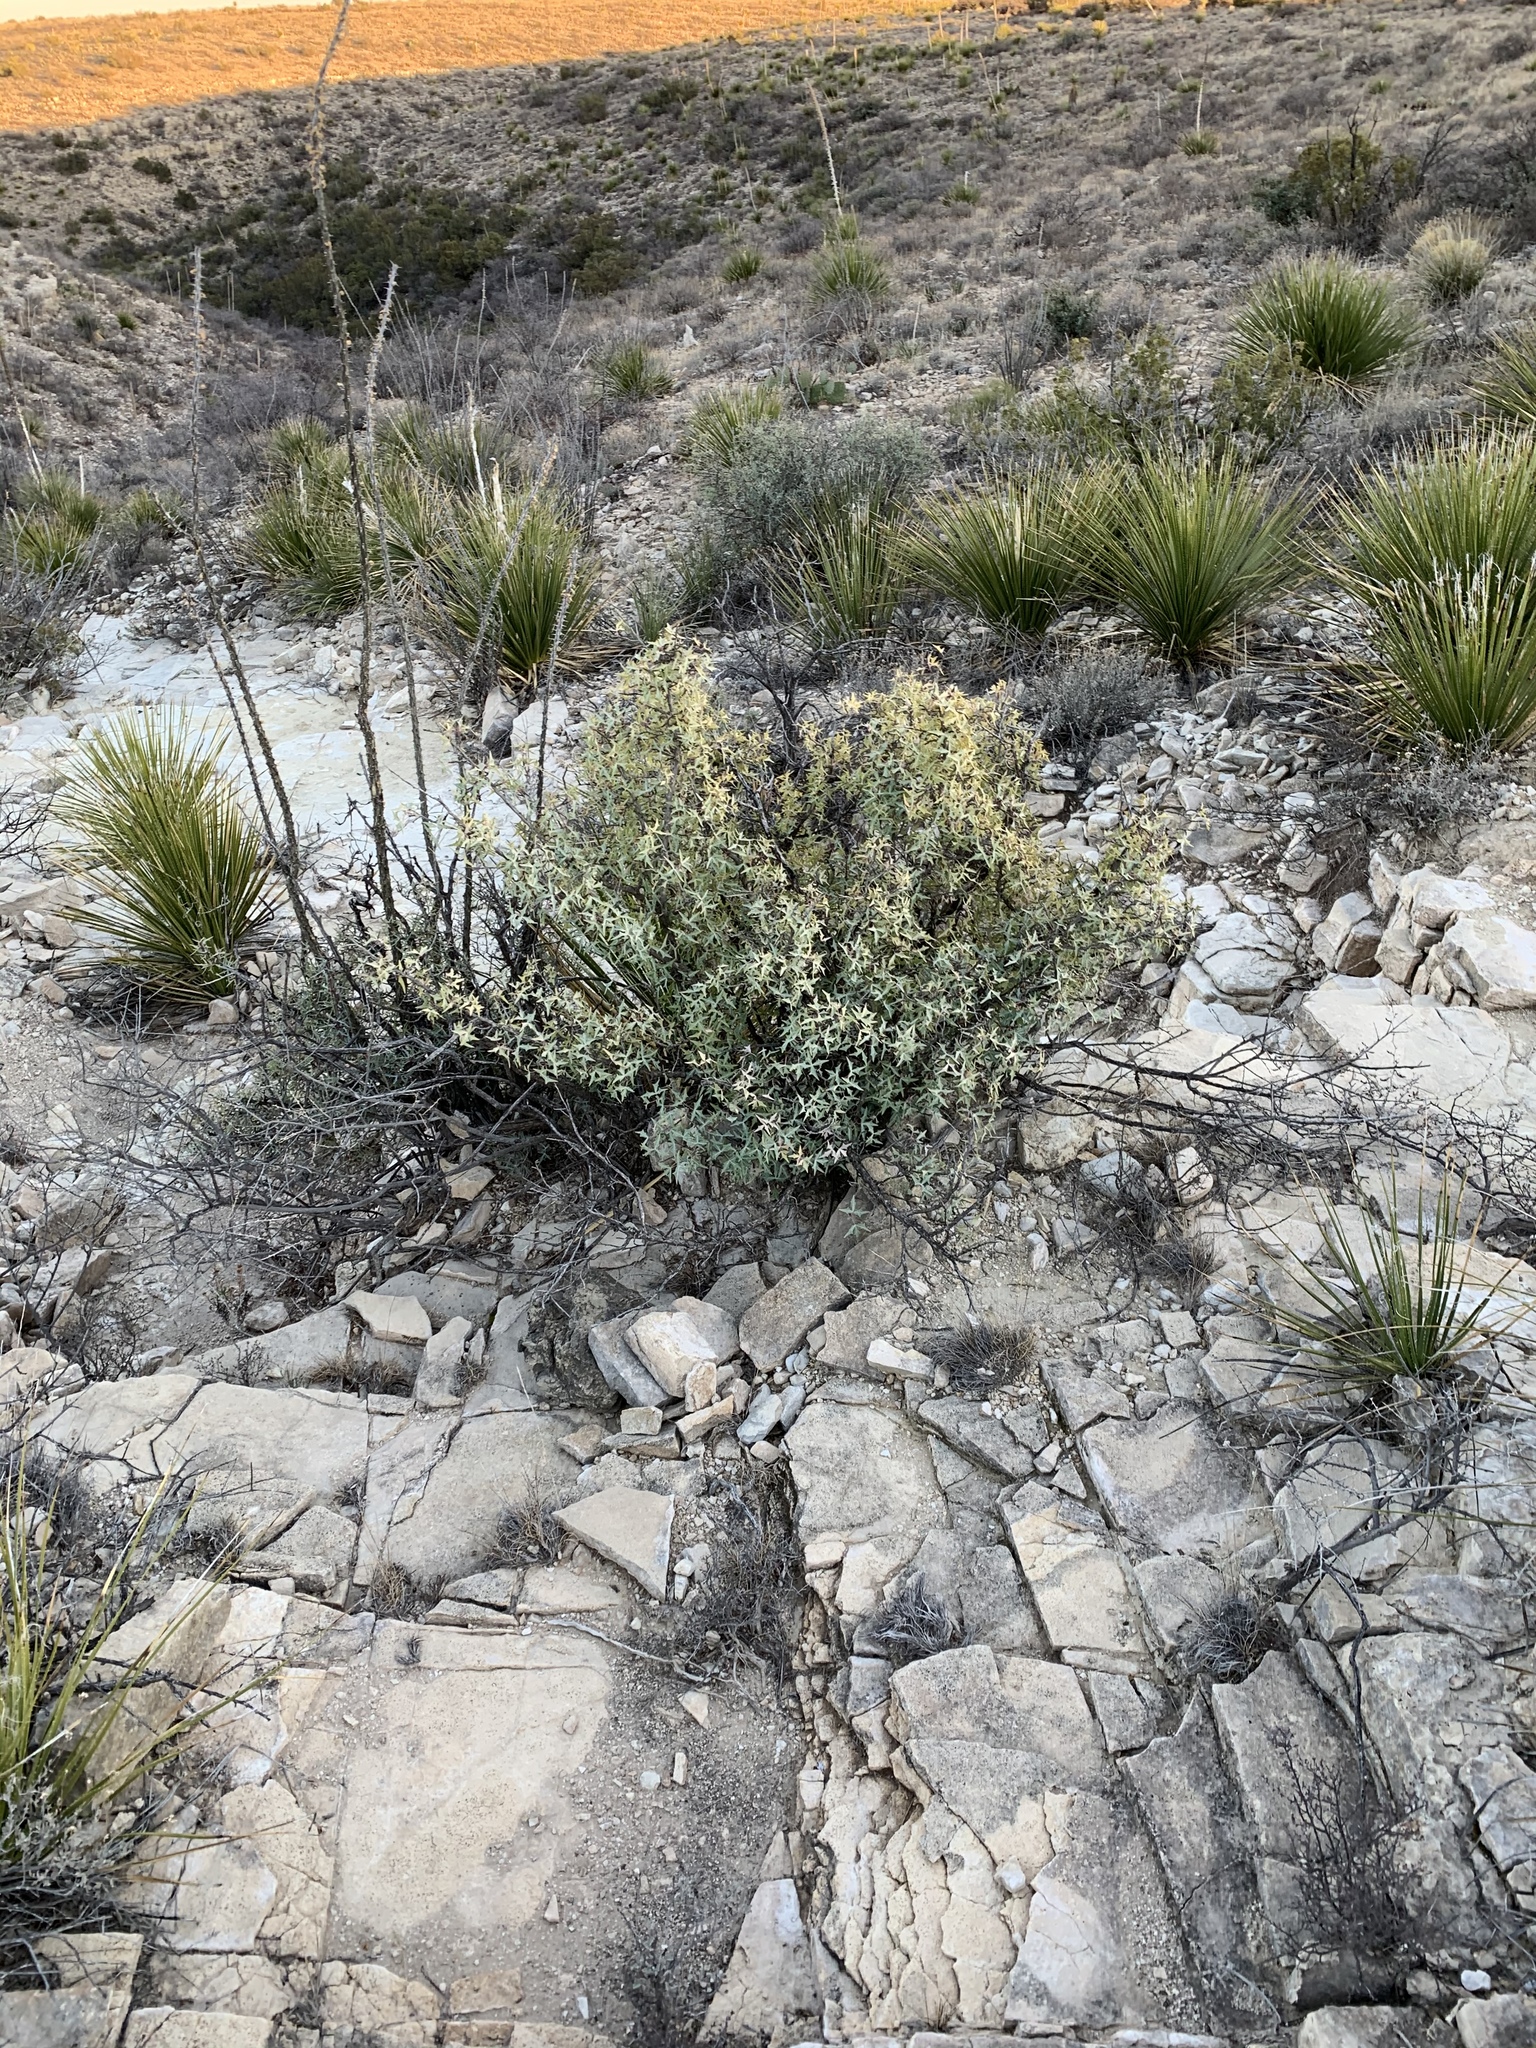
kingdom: Plantae
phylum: Tracheophyta
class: Magnoliopsida
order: Ranunculales
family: Berberidaceae
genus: Alloberberis
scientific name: Alloberberis trifoliolata
